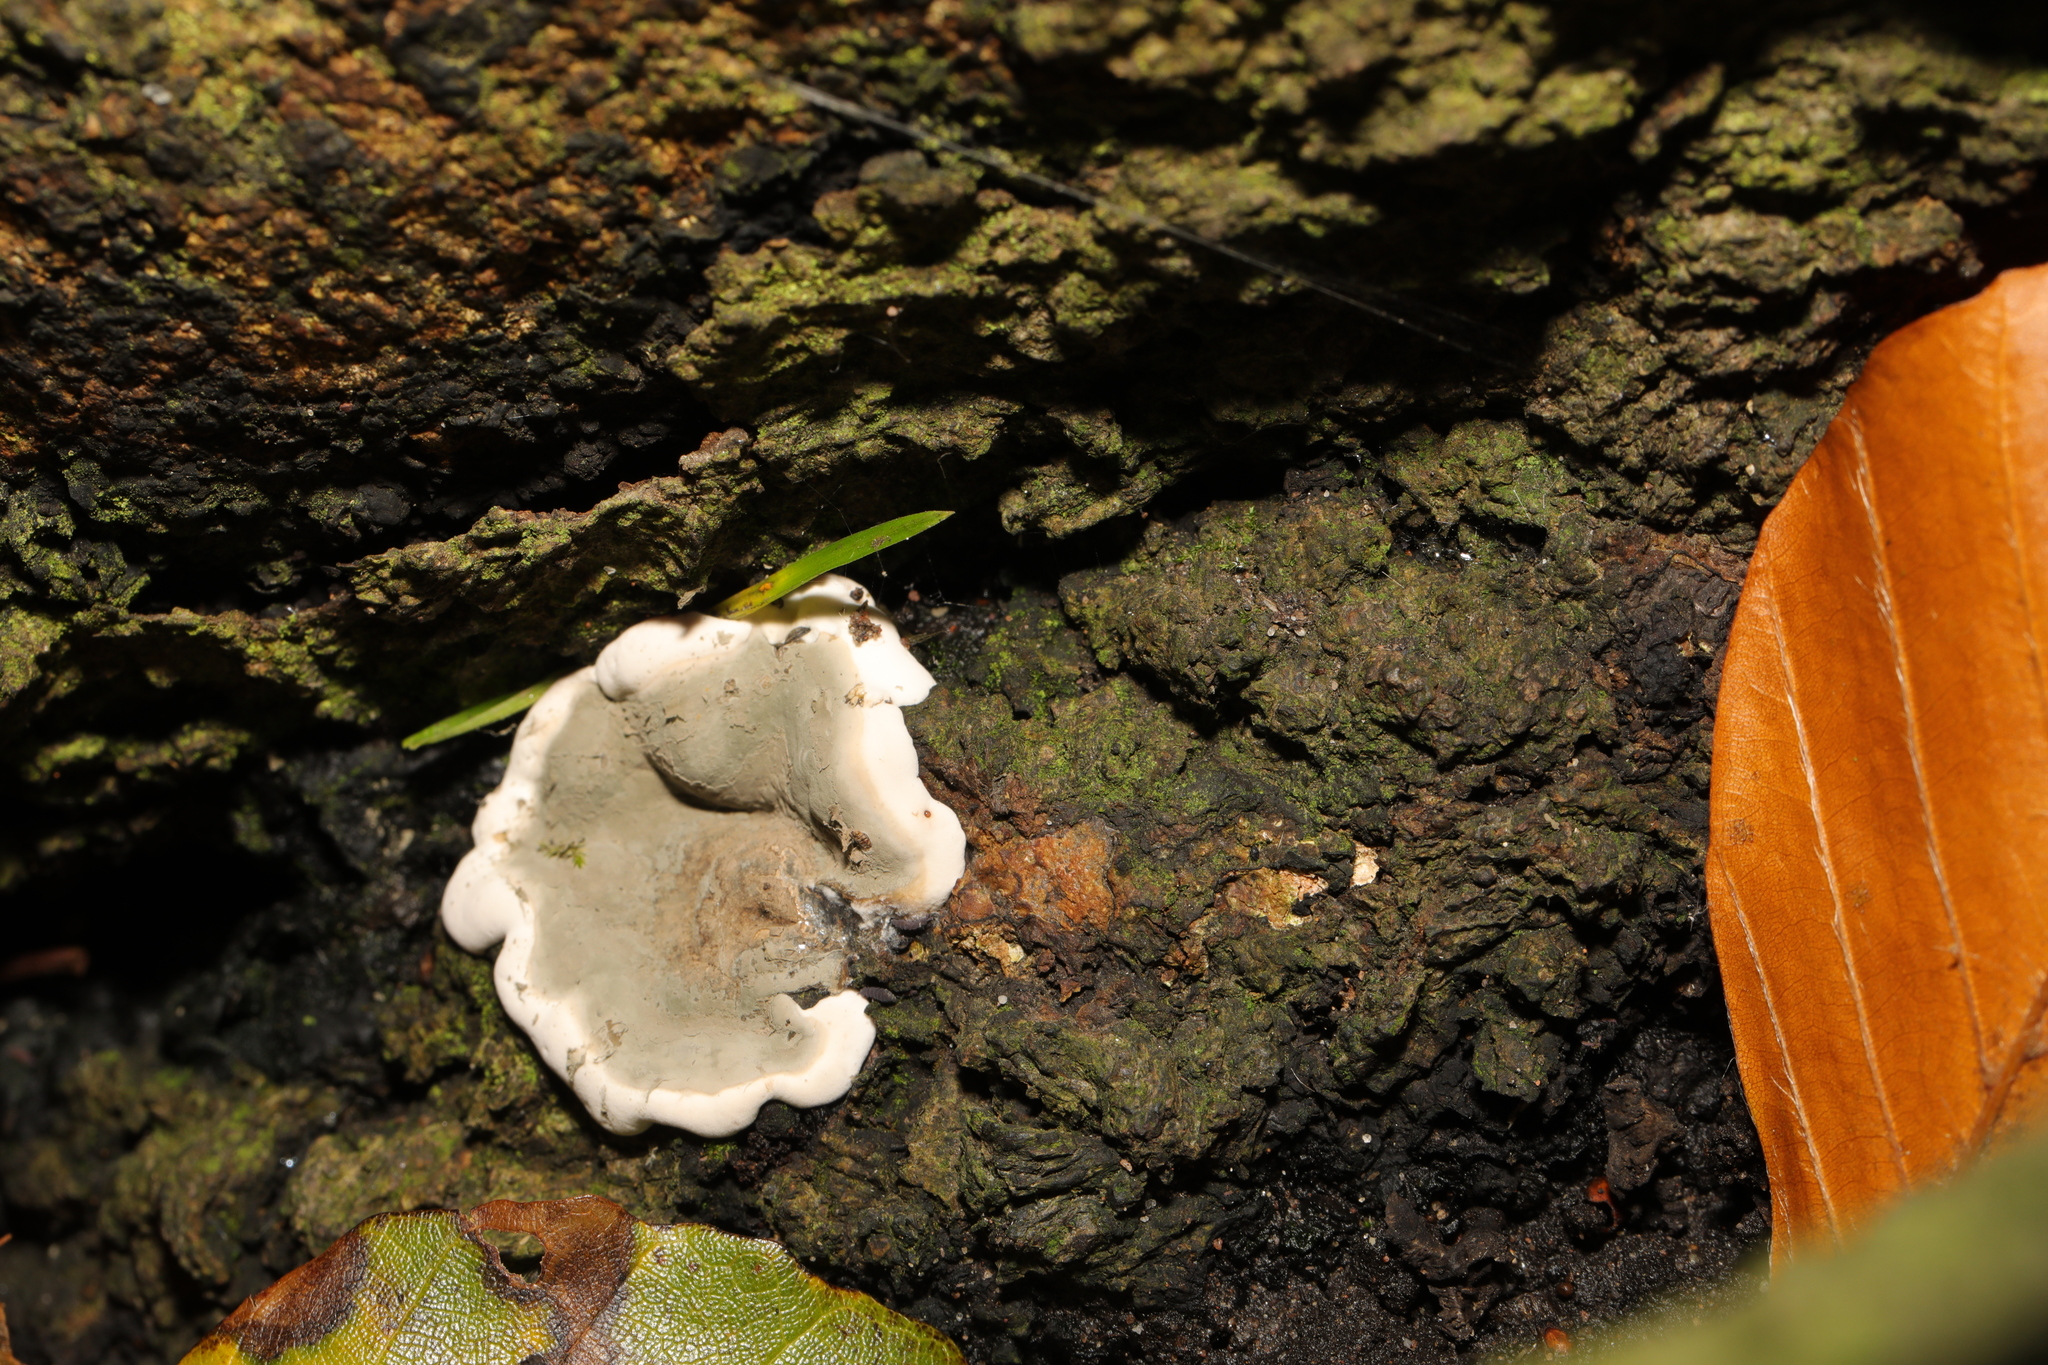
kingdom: Fungi
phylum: Basidiomycota
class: Agaricomycetes
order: Polyporales
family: Phanerochaetaceae
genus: Bjerkandera
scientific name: Bjerkandera adusta
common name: Smoky bracket
